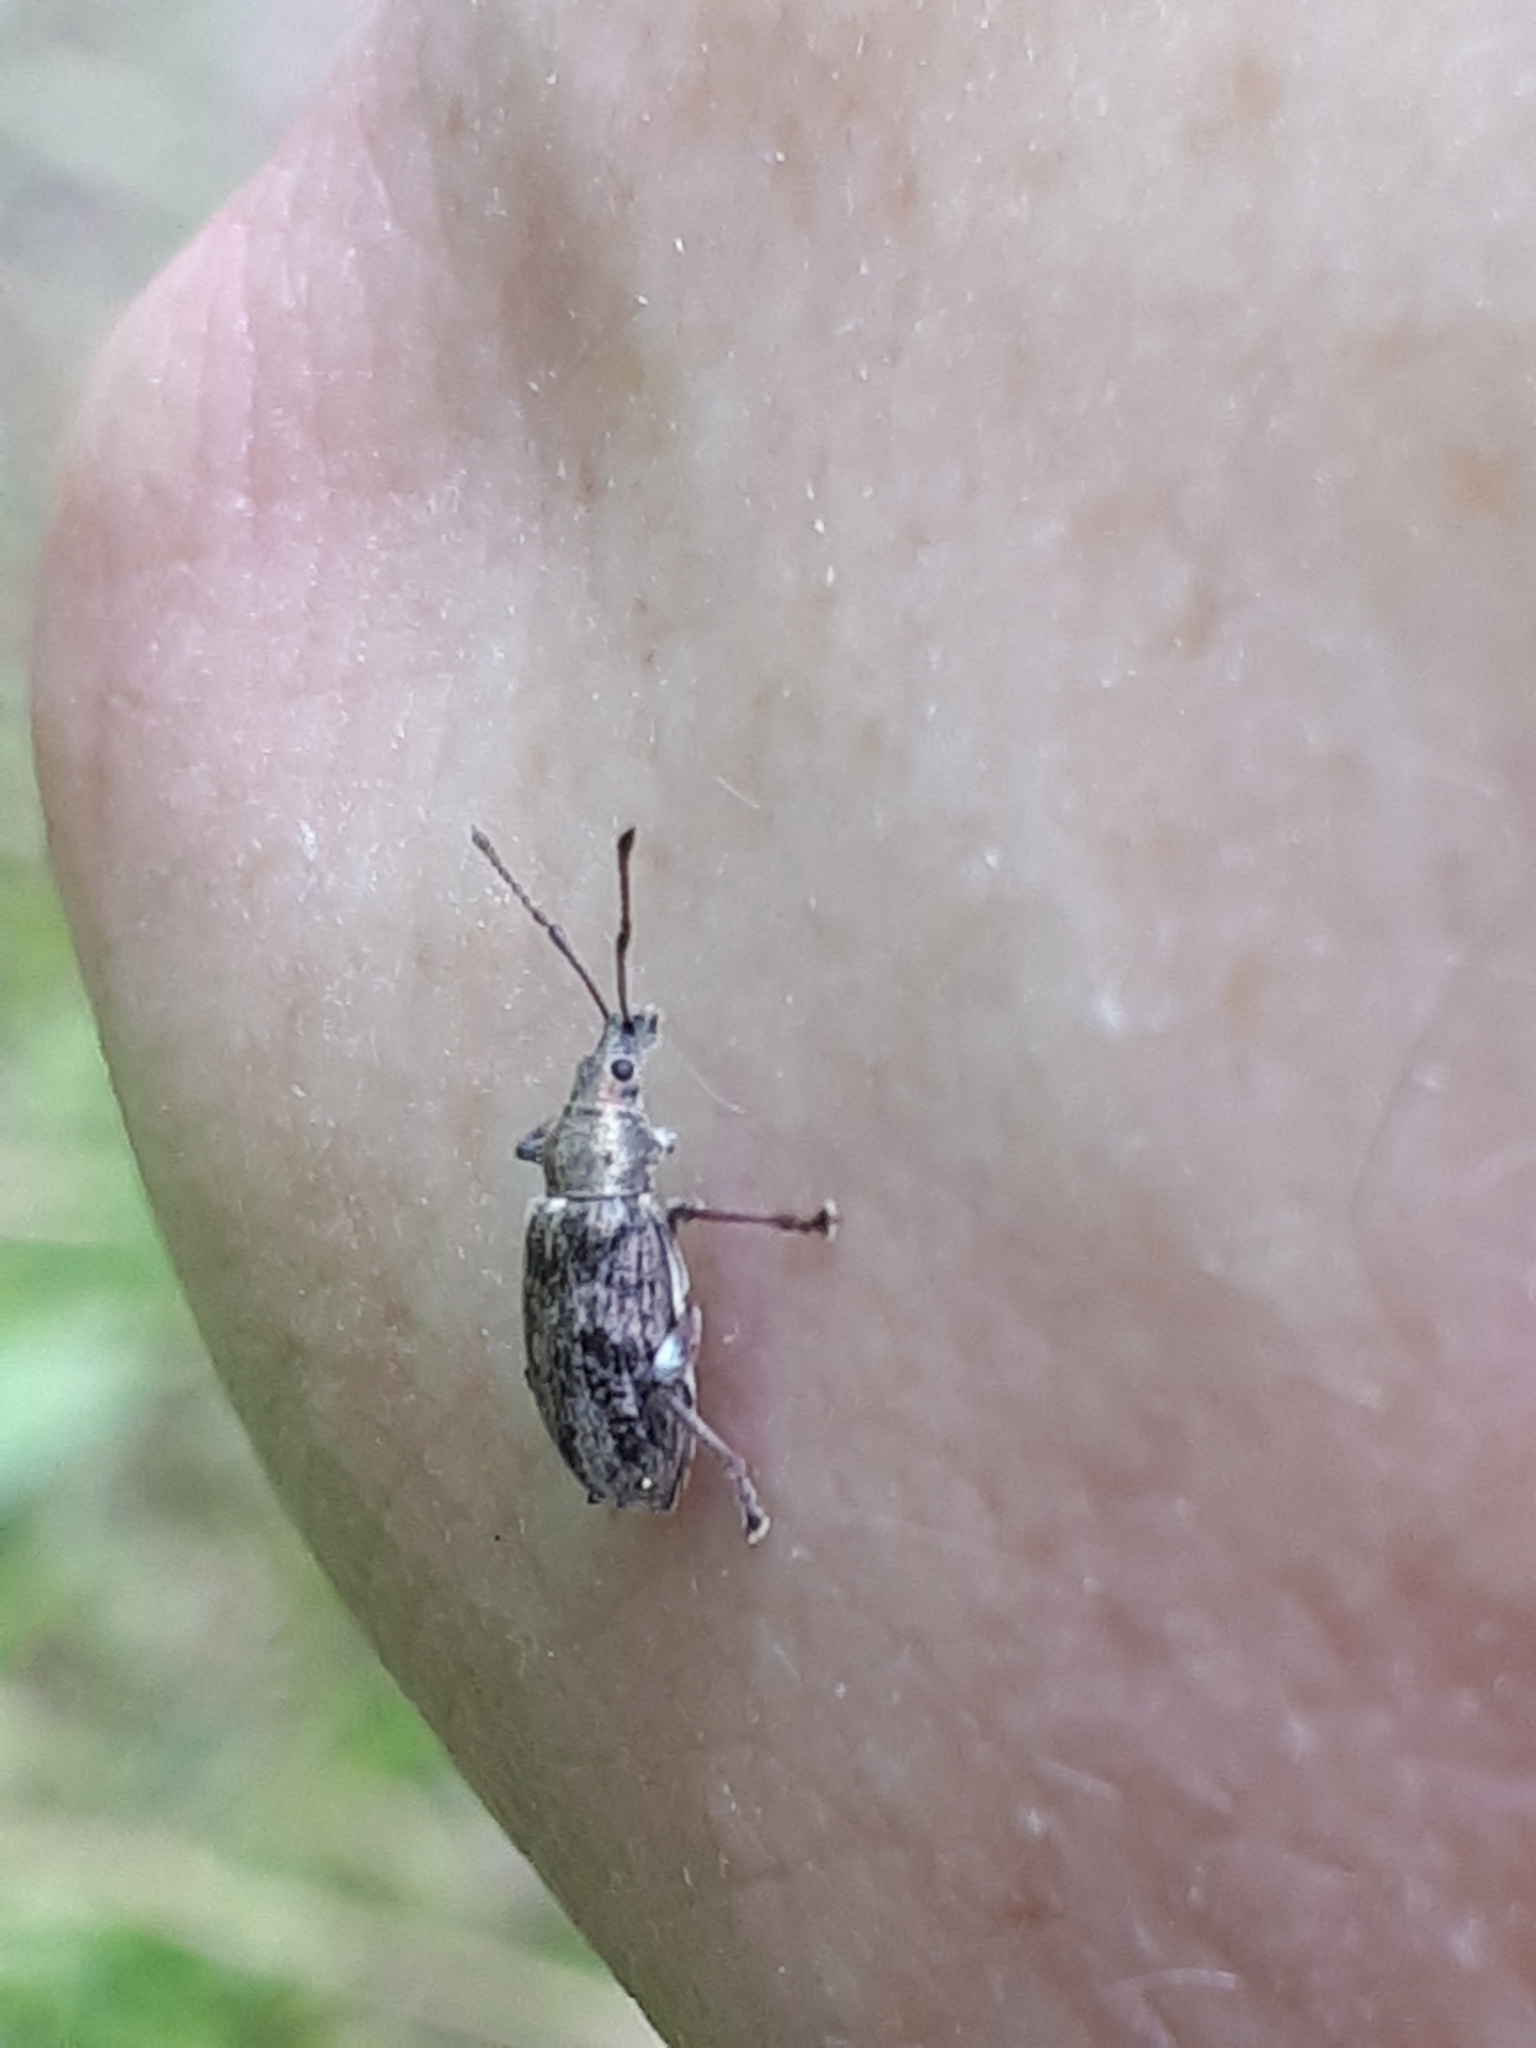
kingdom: Animalia
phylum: Arthropoda
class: Insecta
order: Coleoptera
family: Curculionidae
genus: Phyllobius
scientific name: Phyllobius pyri
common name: Common leaf weevil
